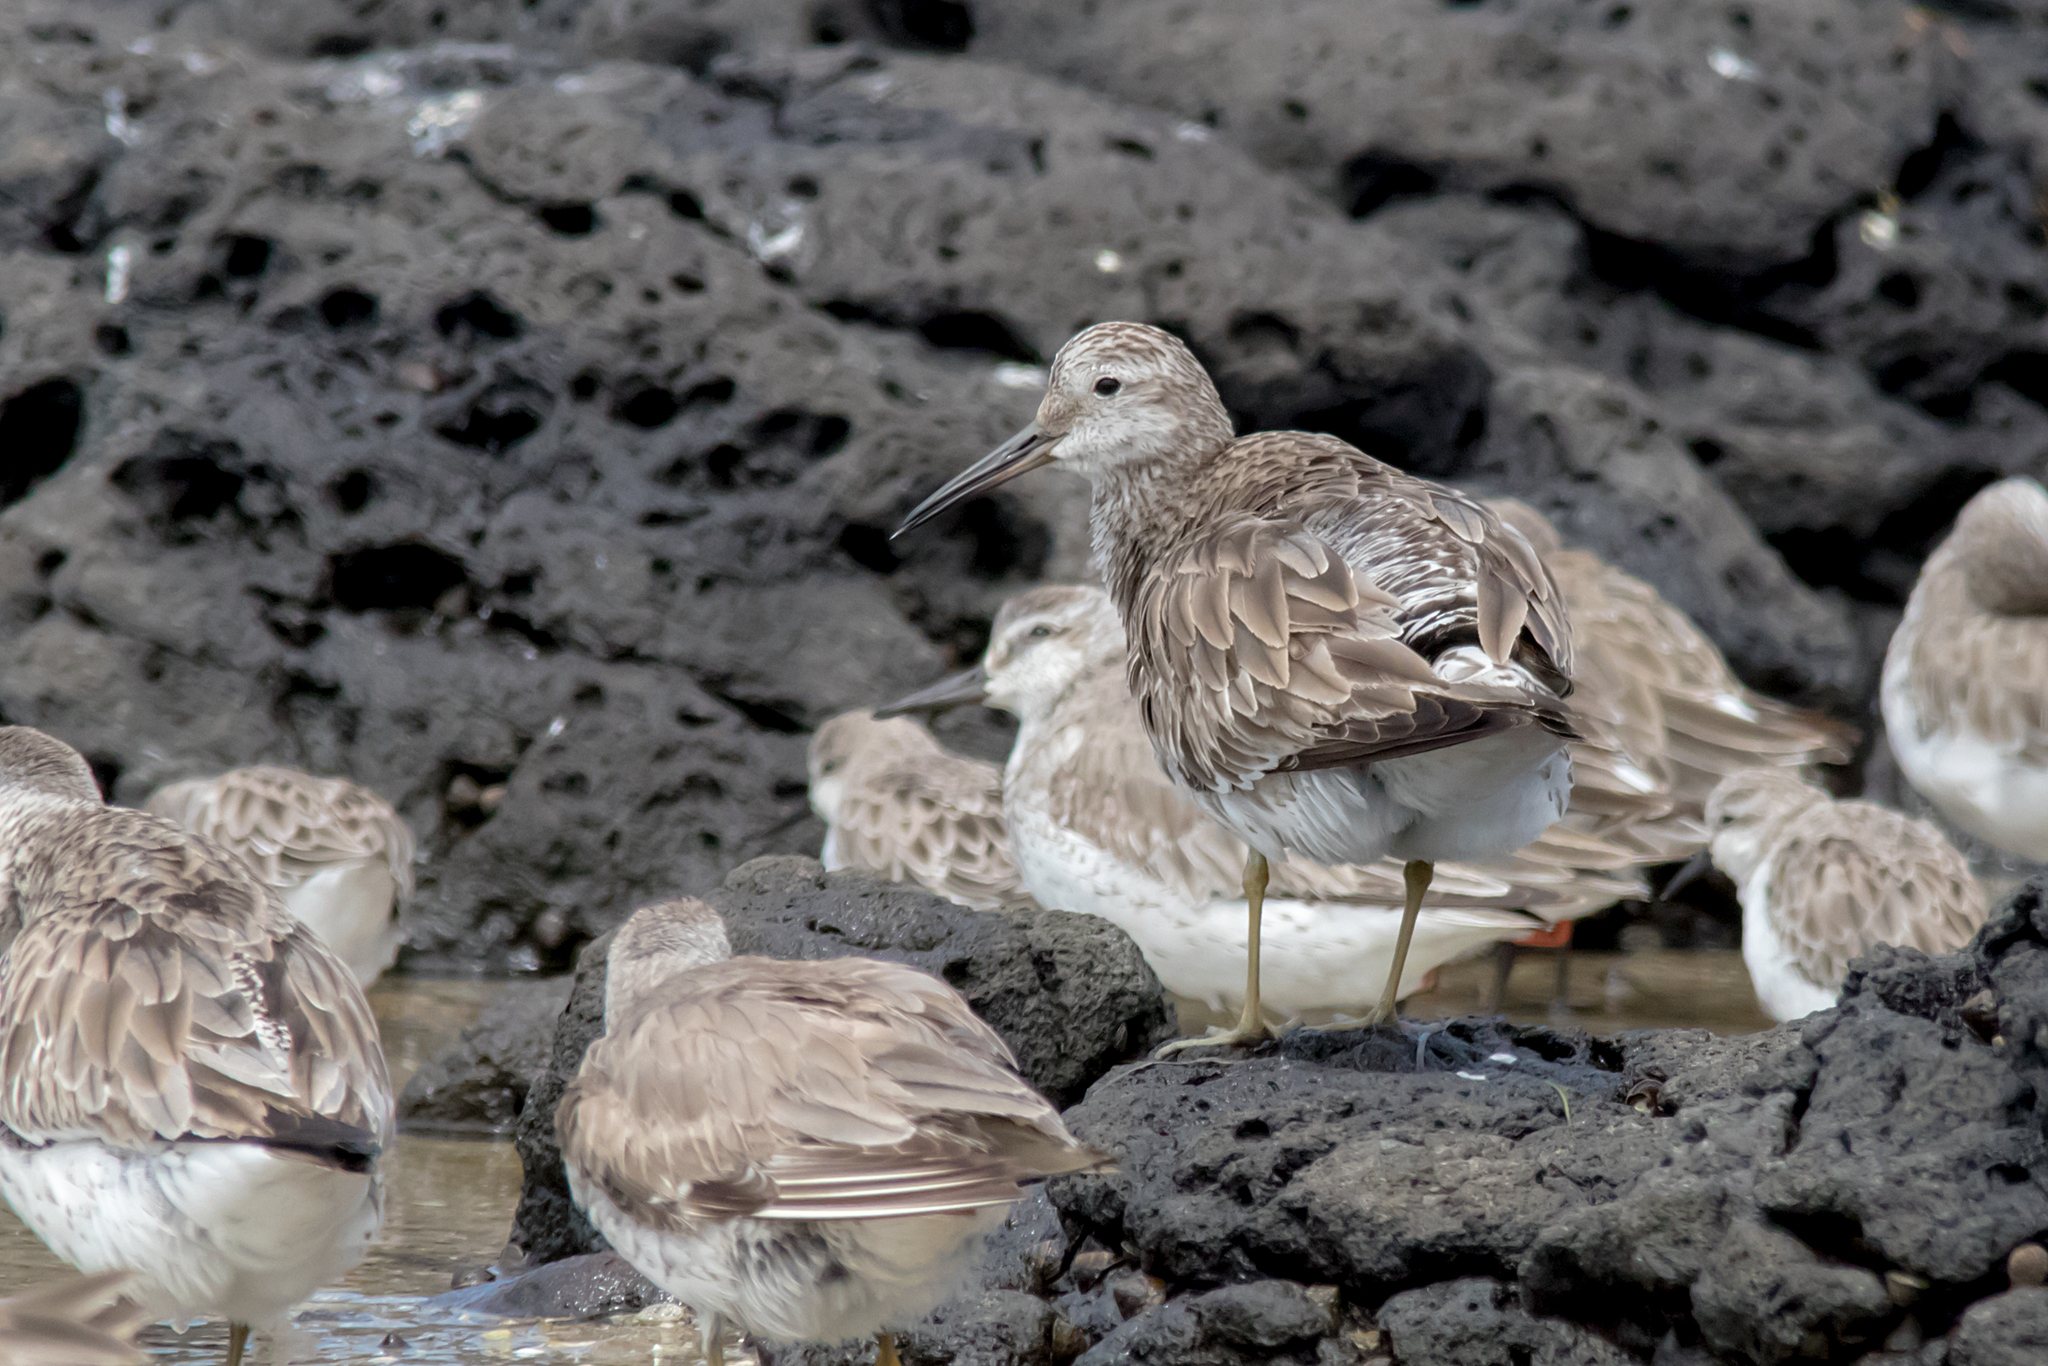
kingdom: Animalia
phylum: Chordata
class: Aves
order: Charadriiformes
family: Scolopacidae
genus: Calidris
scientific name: Calidris tenuirostris
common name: Great knot
